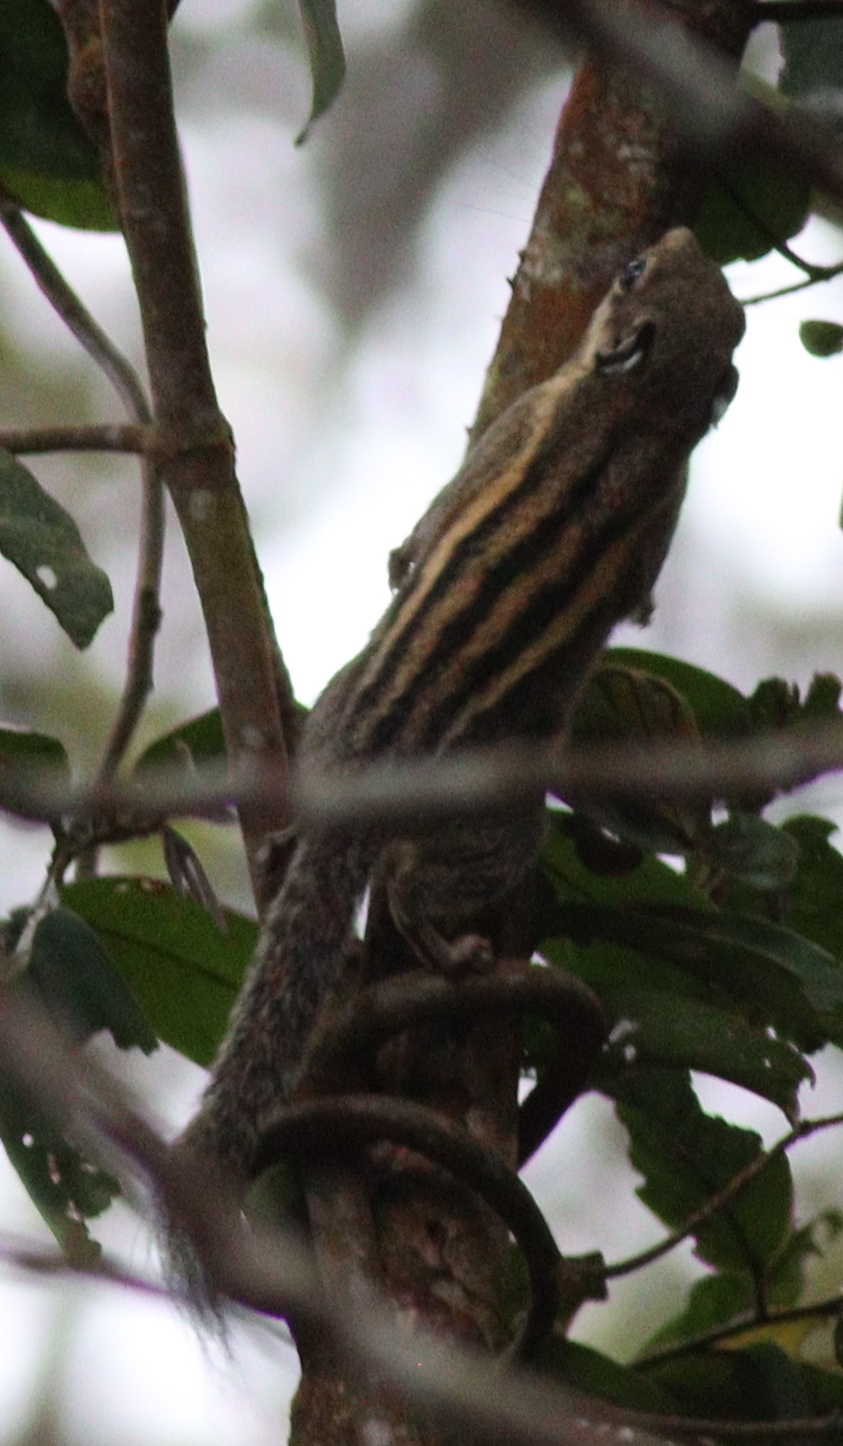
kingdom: Animalia
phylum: Chordata
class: Mammalia
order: Rodentia
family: Sciuridae
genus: Tamiops
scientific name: Tamiops mcclellandii
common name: Himalayan striped squirrel
